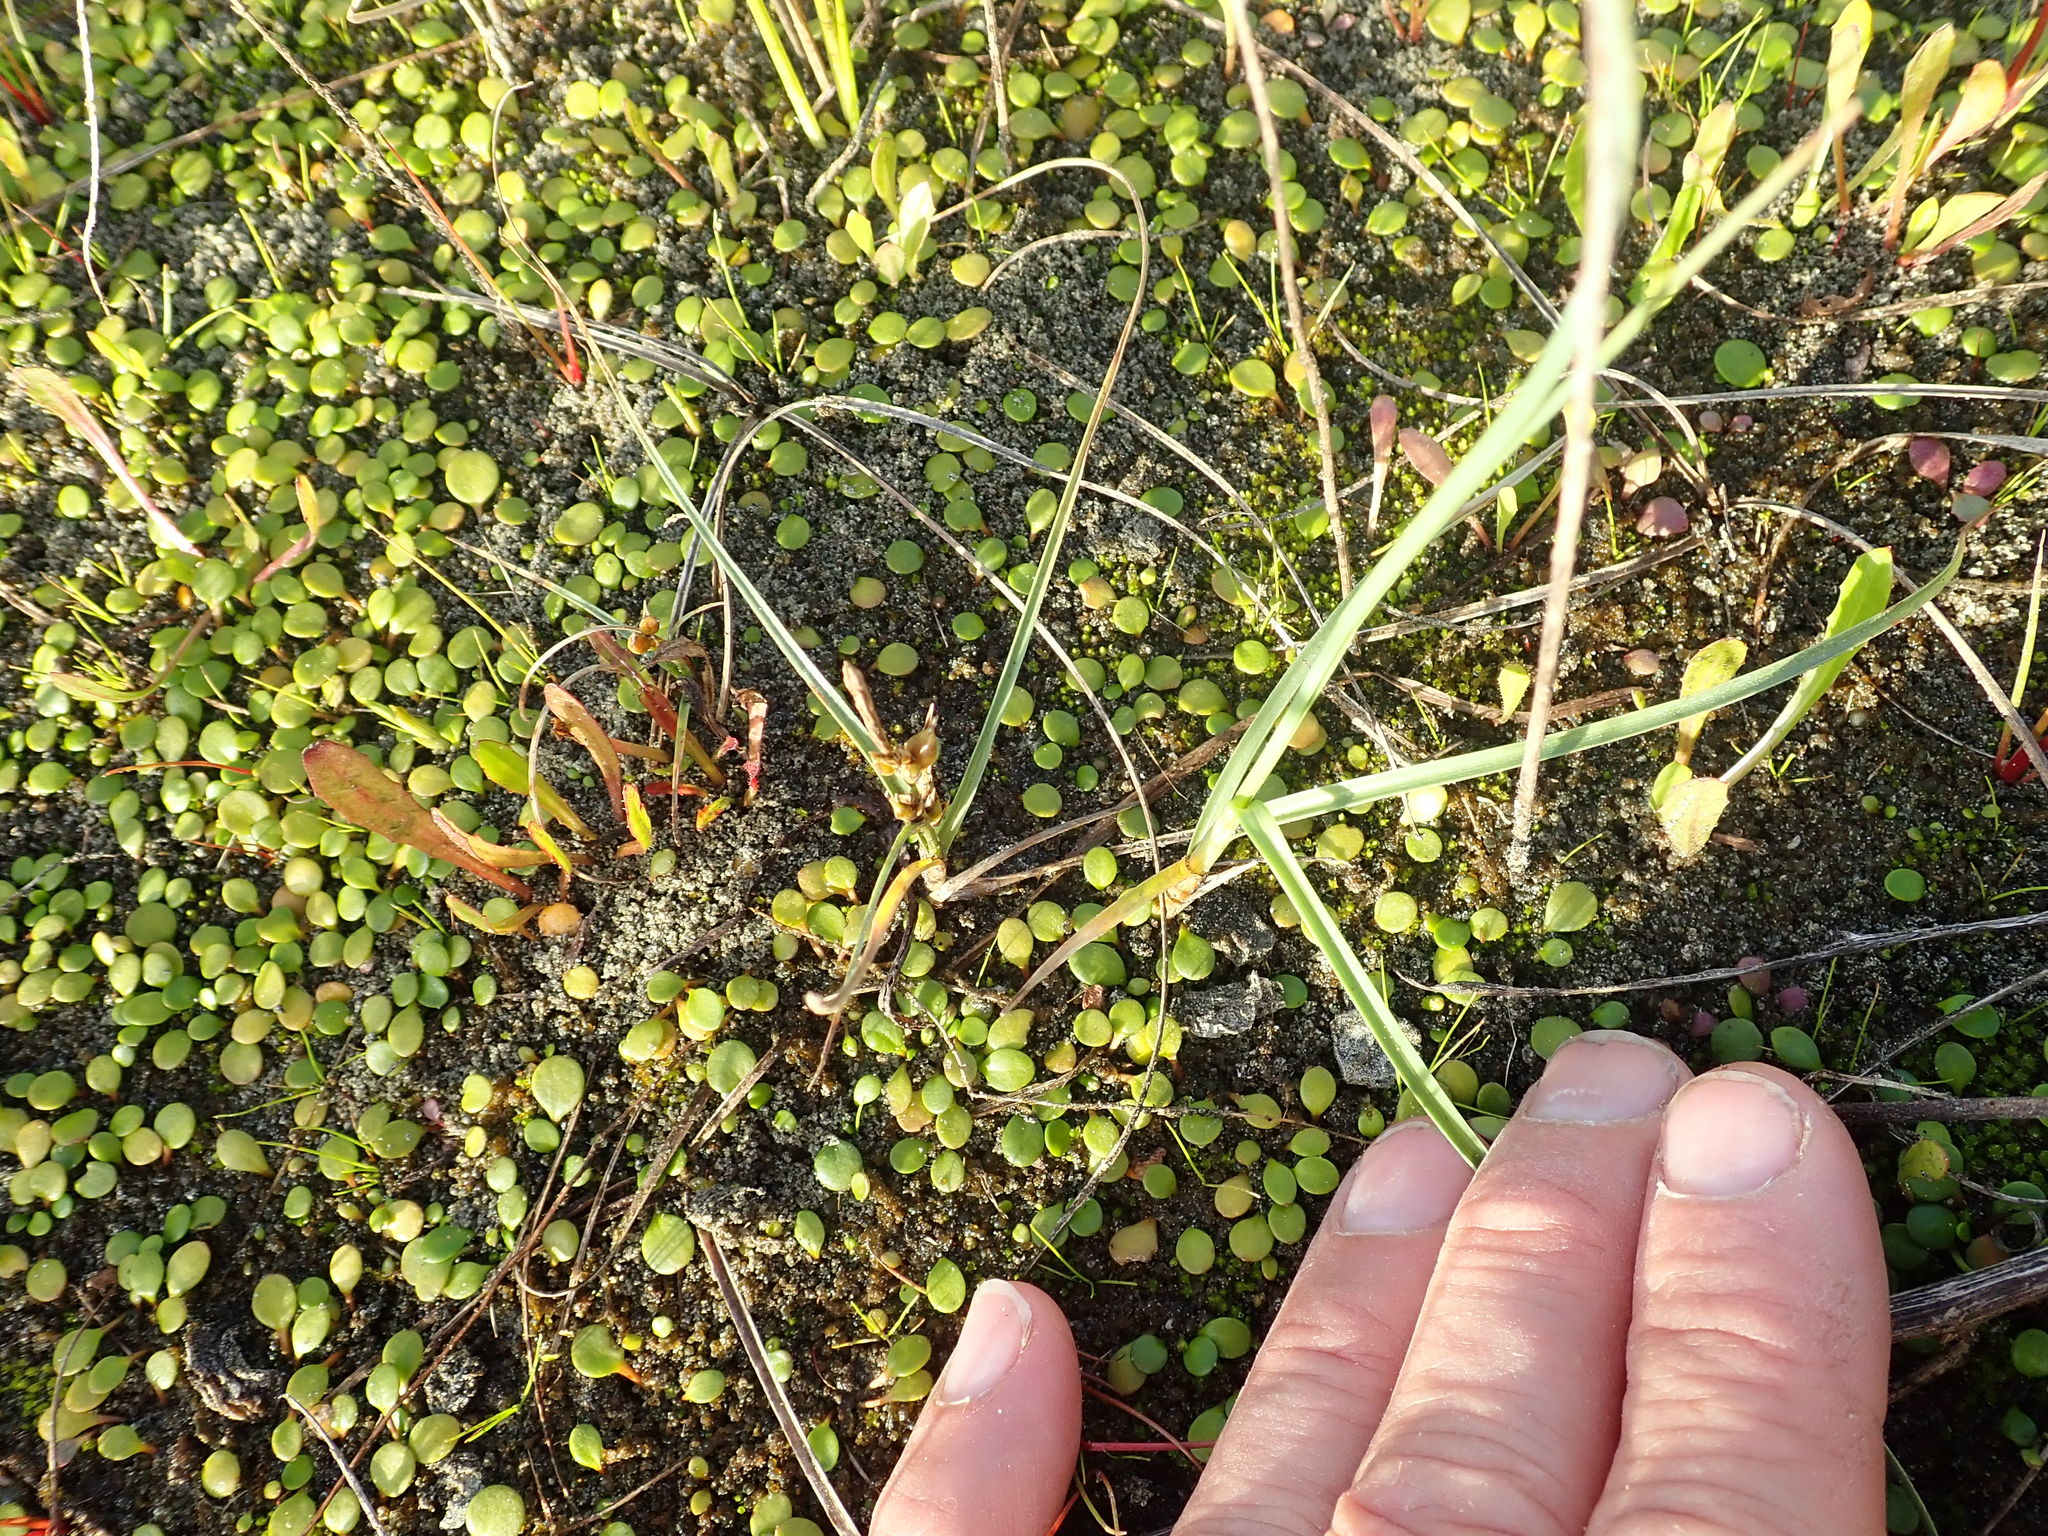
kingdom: Plantae
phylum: Tracheophyta
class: Liliopsida
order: Poales
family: Cyperaceae
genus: Carex
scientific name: Carex pumila
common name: Dwarf sedge
